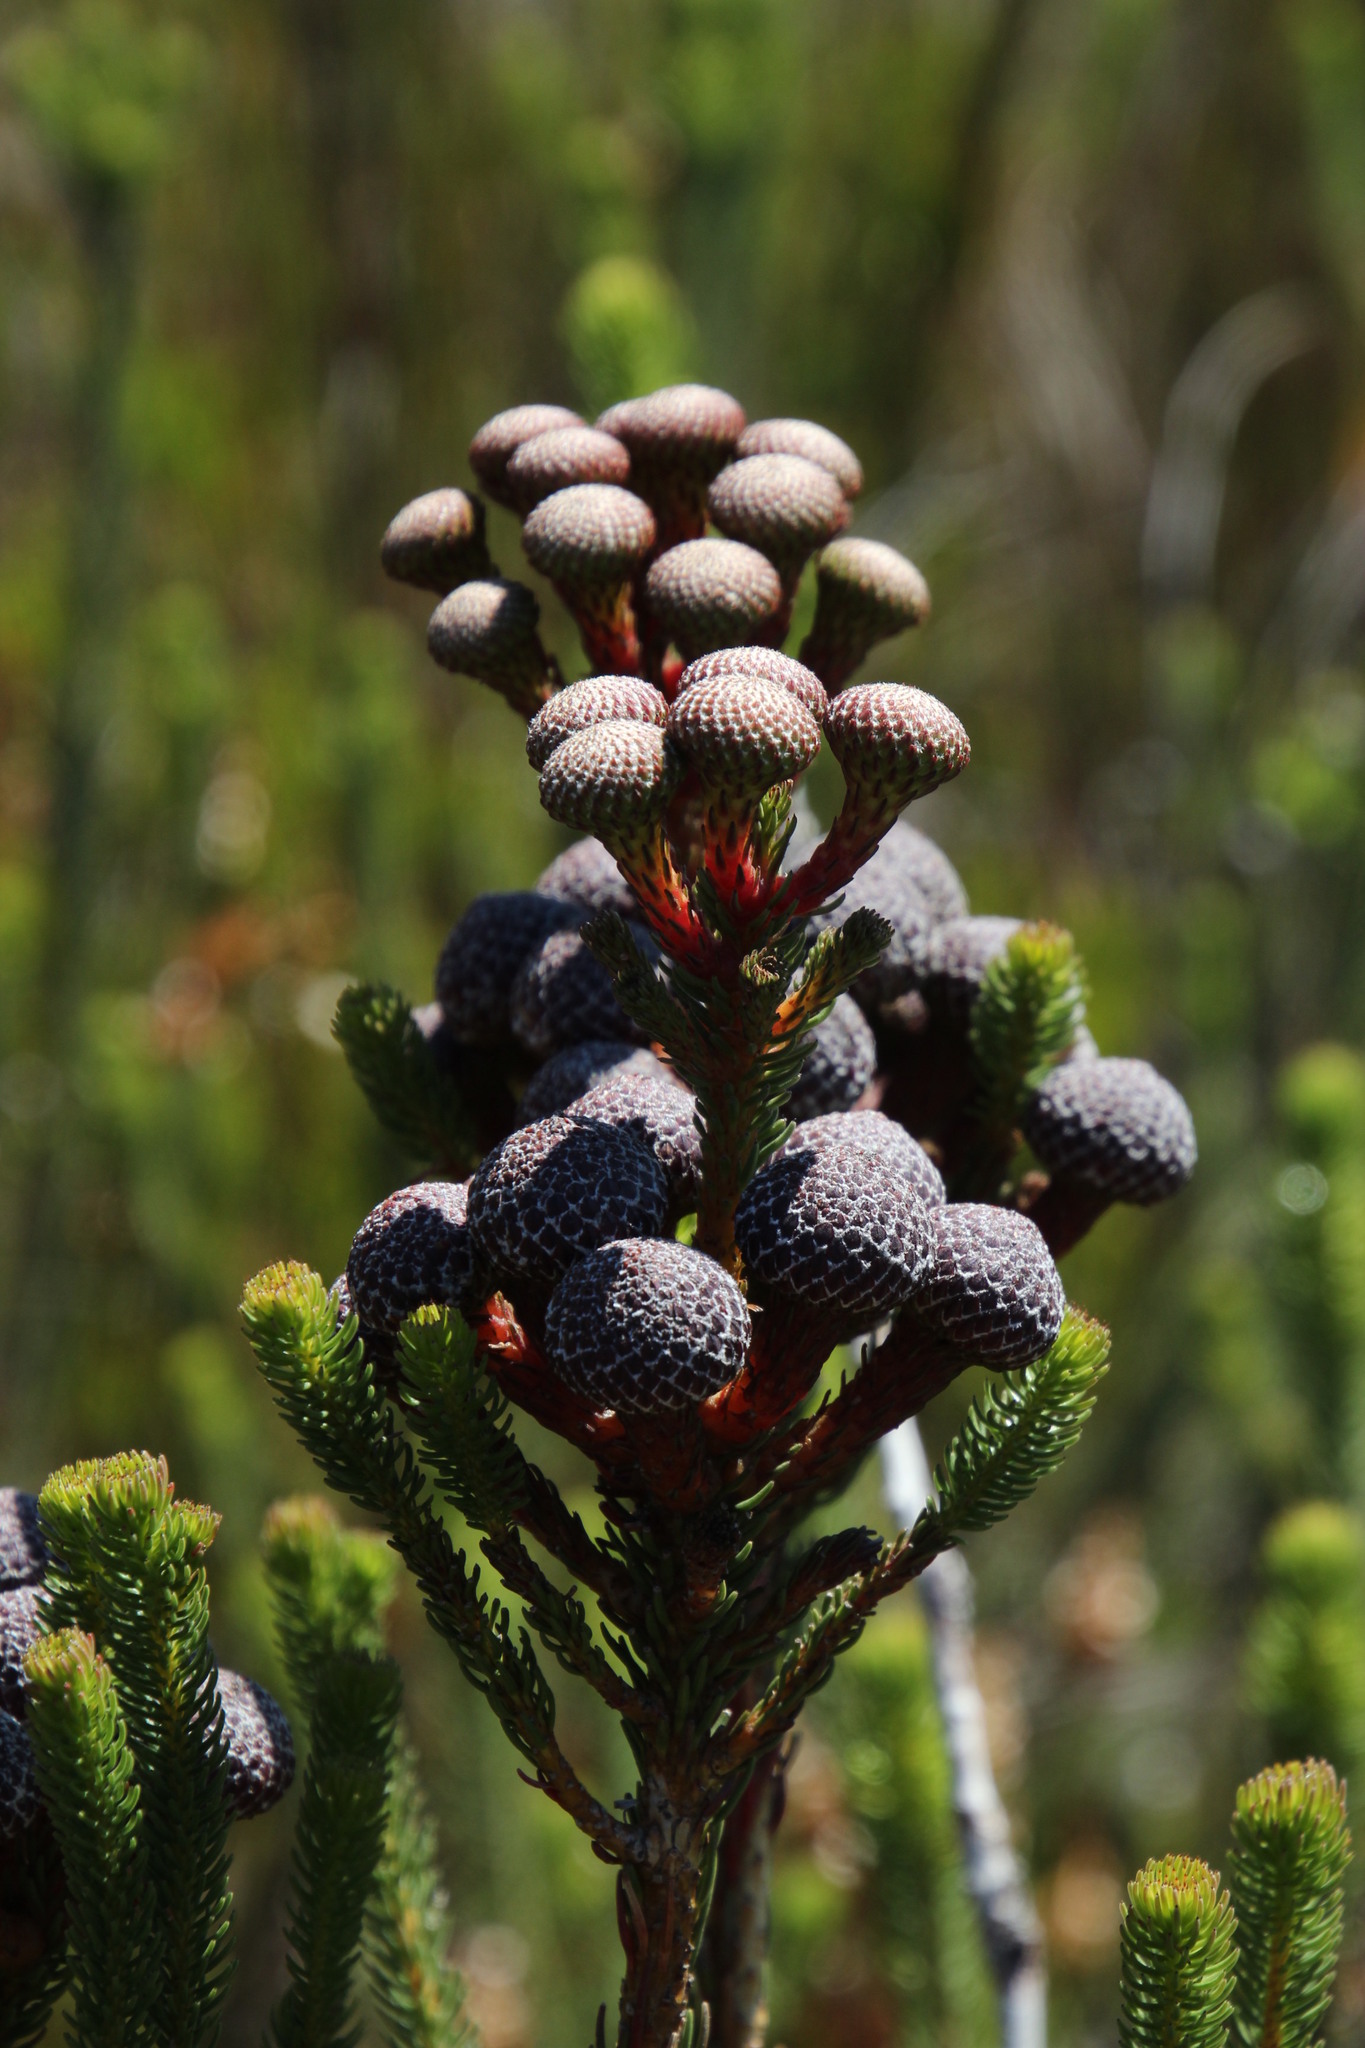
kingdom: Plantae
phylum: Tracheophyta
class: Magnoliopsida
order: Bruniales
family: Bruniaceae
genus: Berzelia
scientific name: Berzelia stokoei
